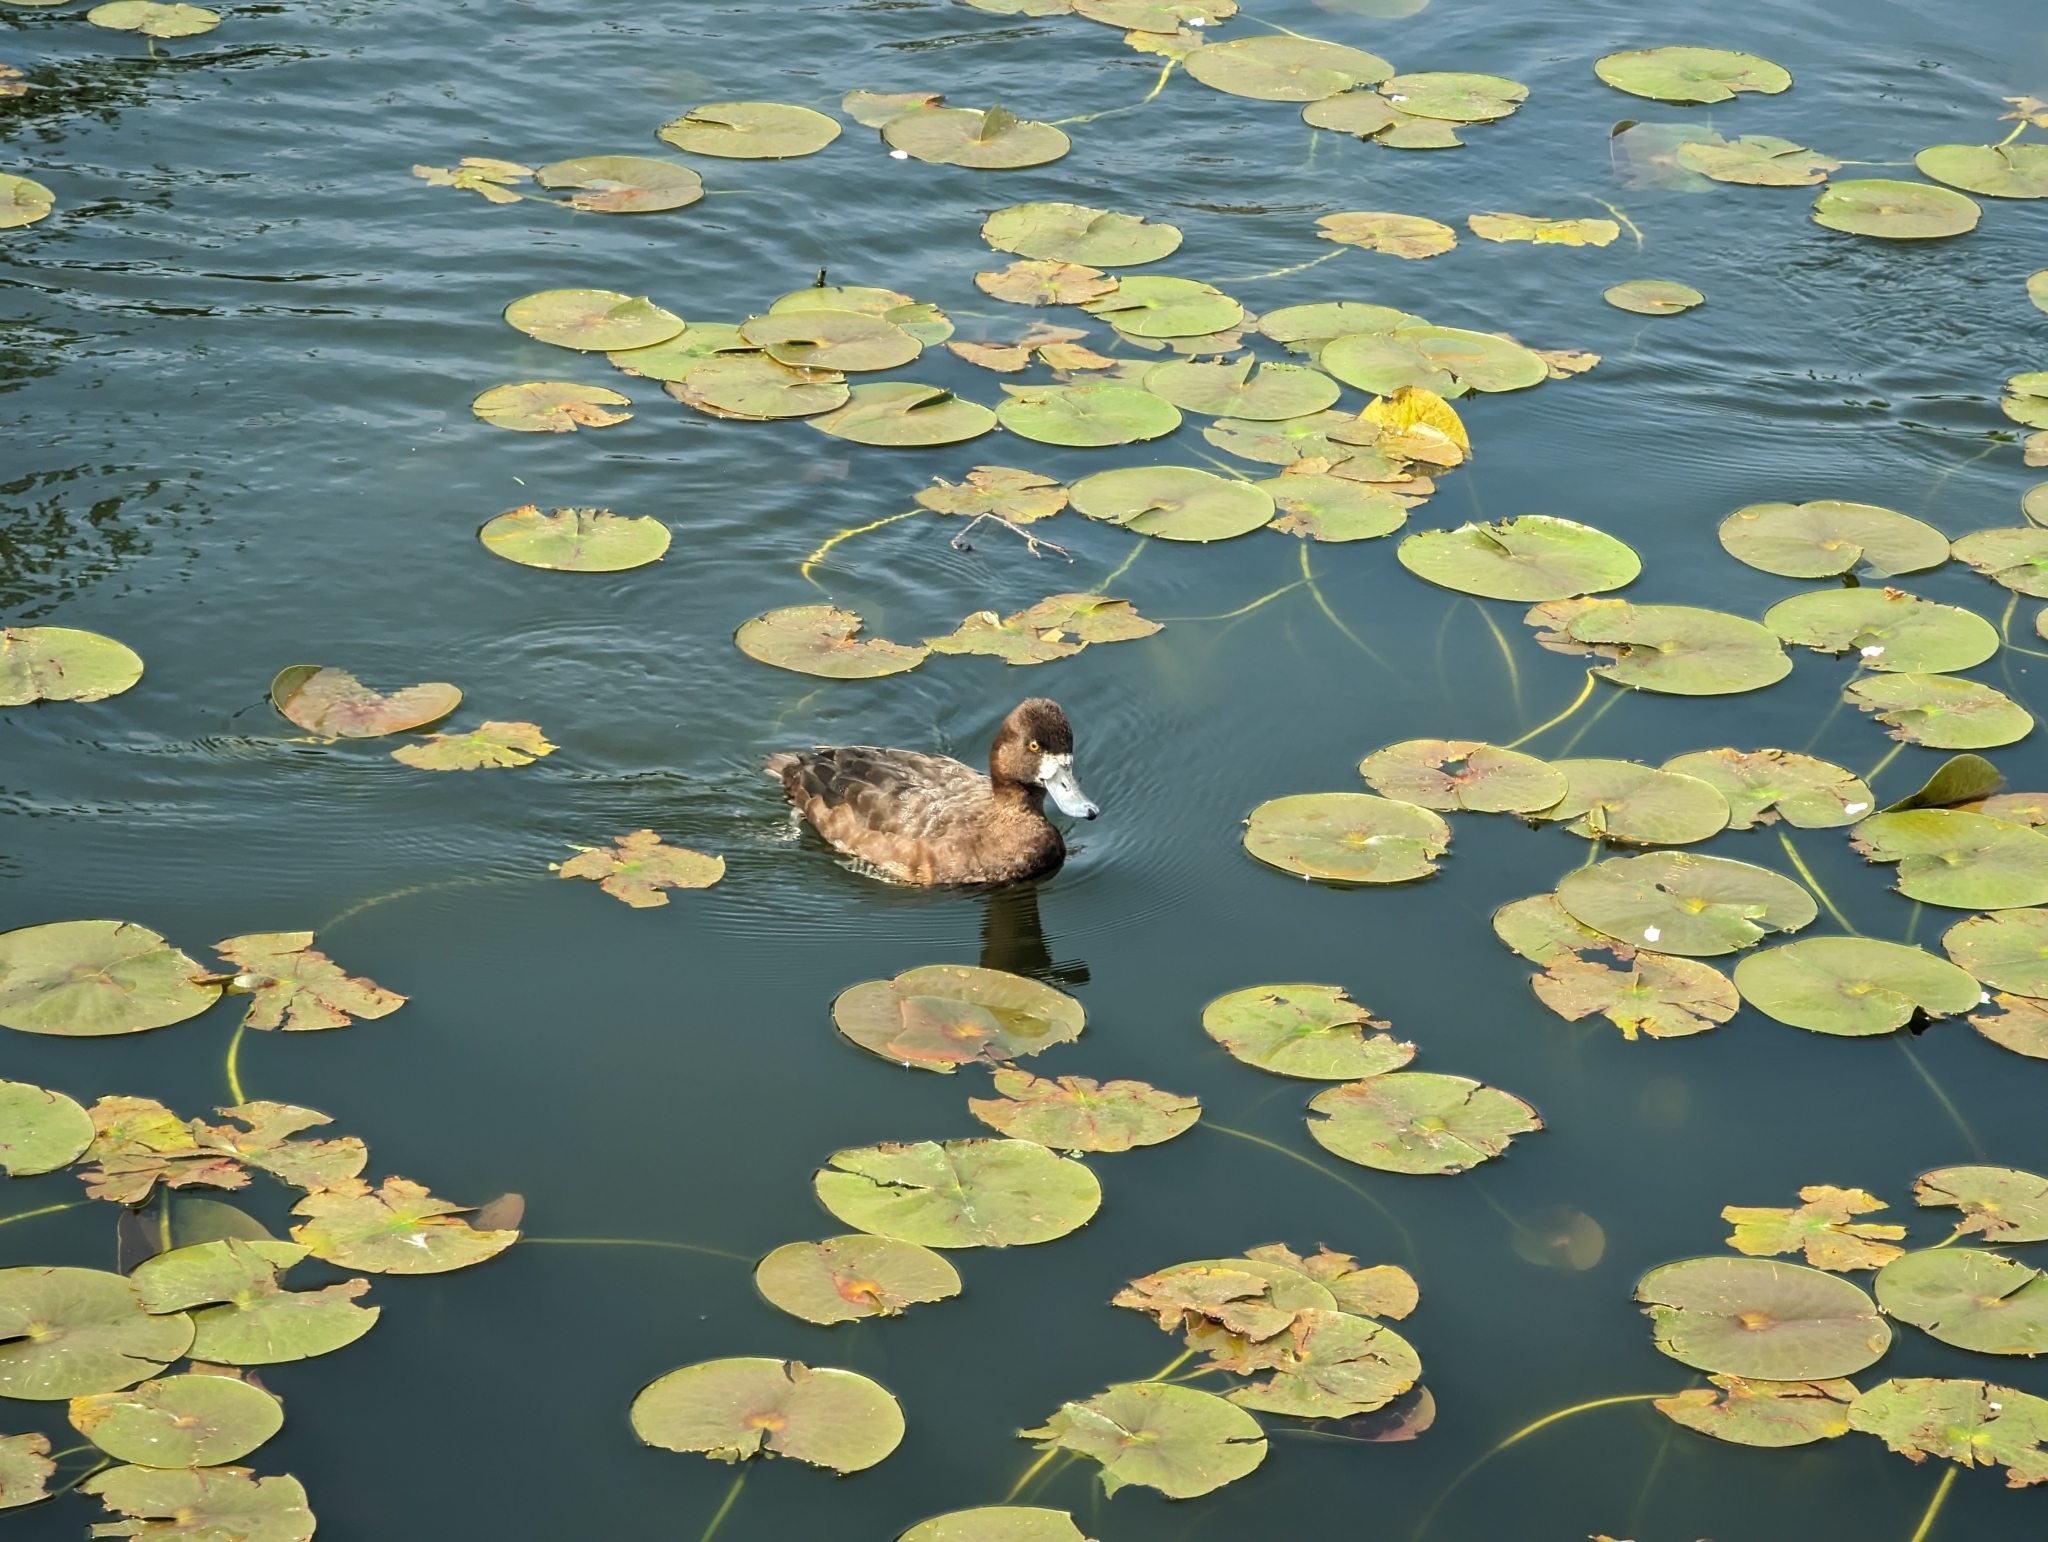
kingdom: Animalia
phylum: Chordata
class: Aves
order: Anseriformes
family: Anatidae
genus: Aythya
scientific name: Aythya affinis
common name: Lesser scaup
